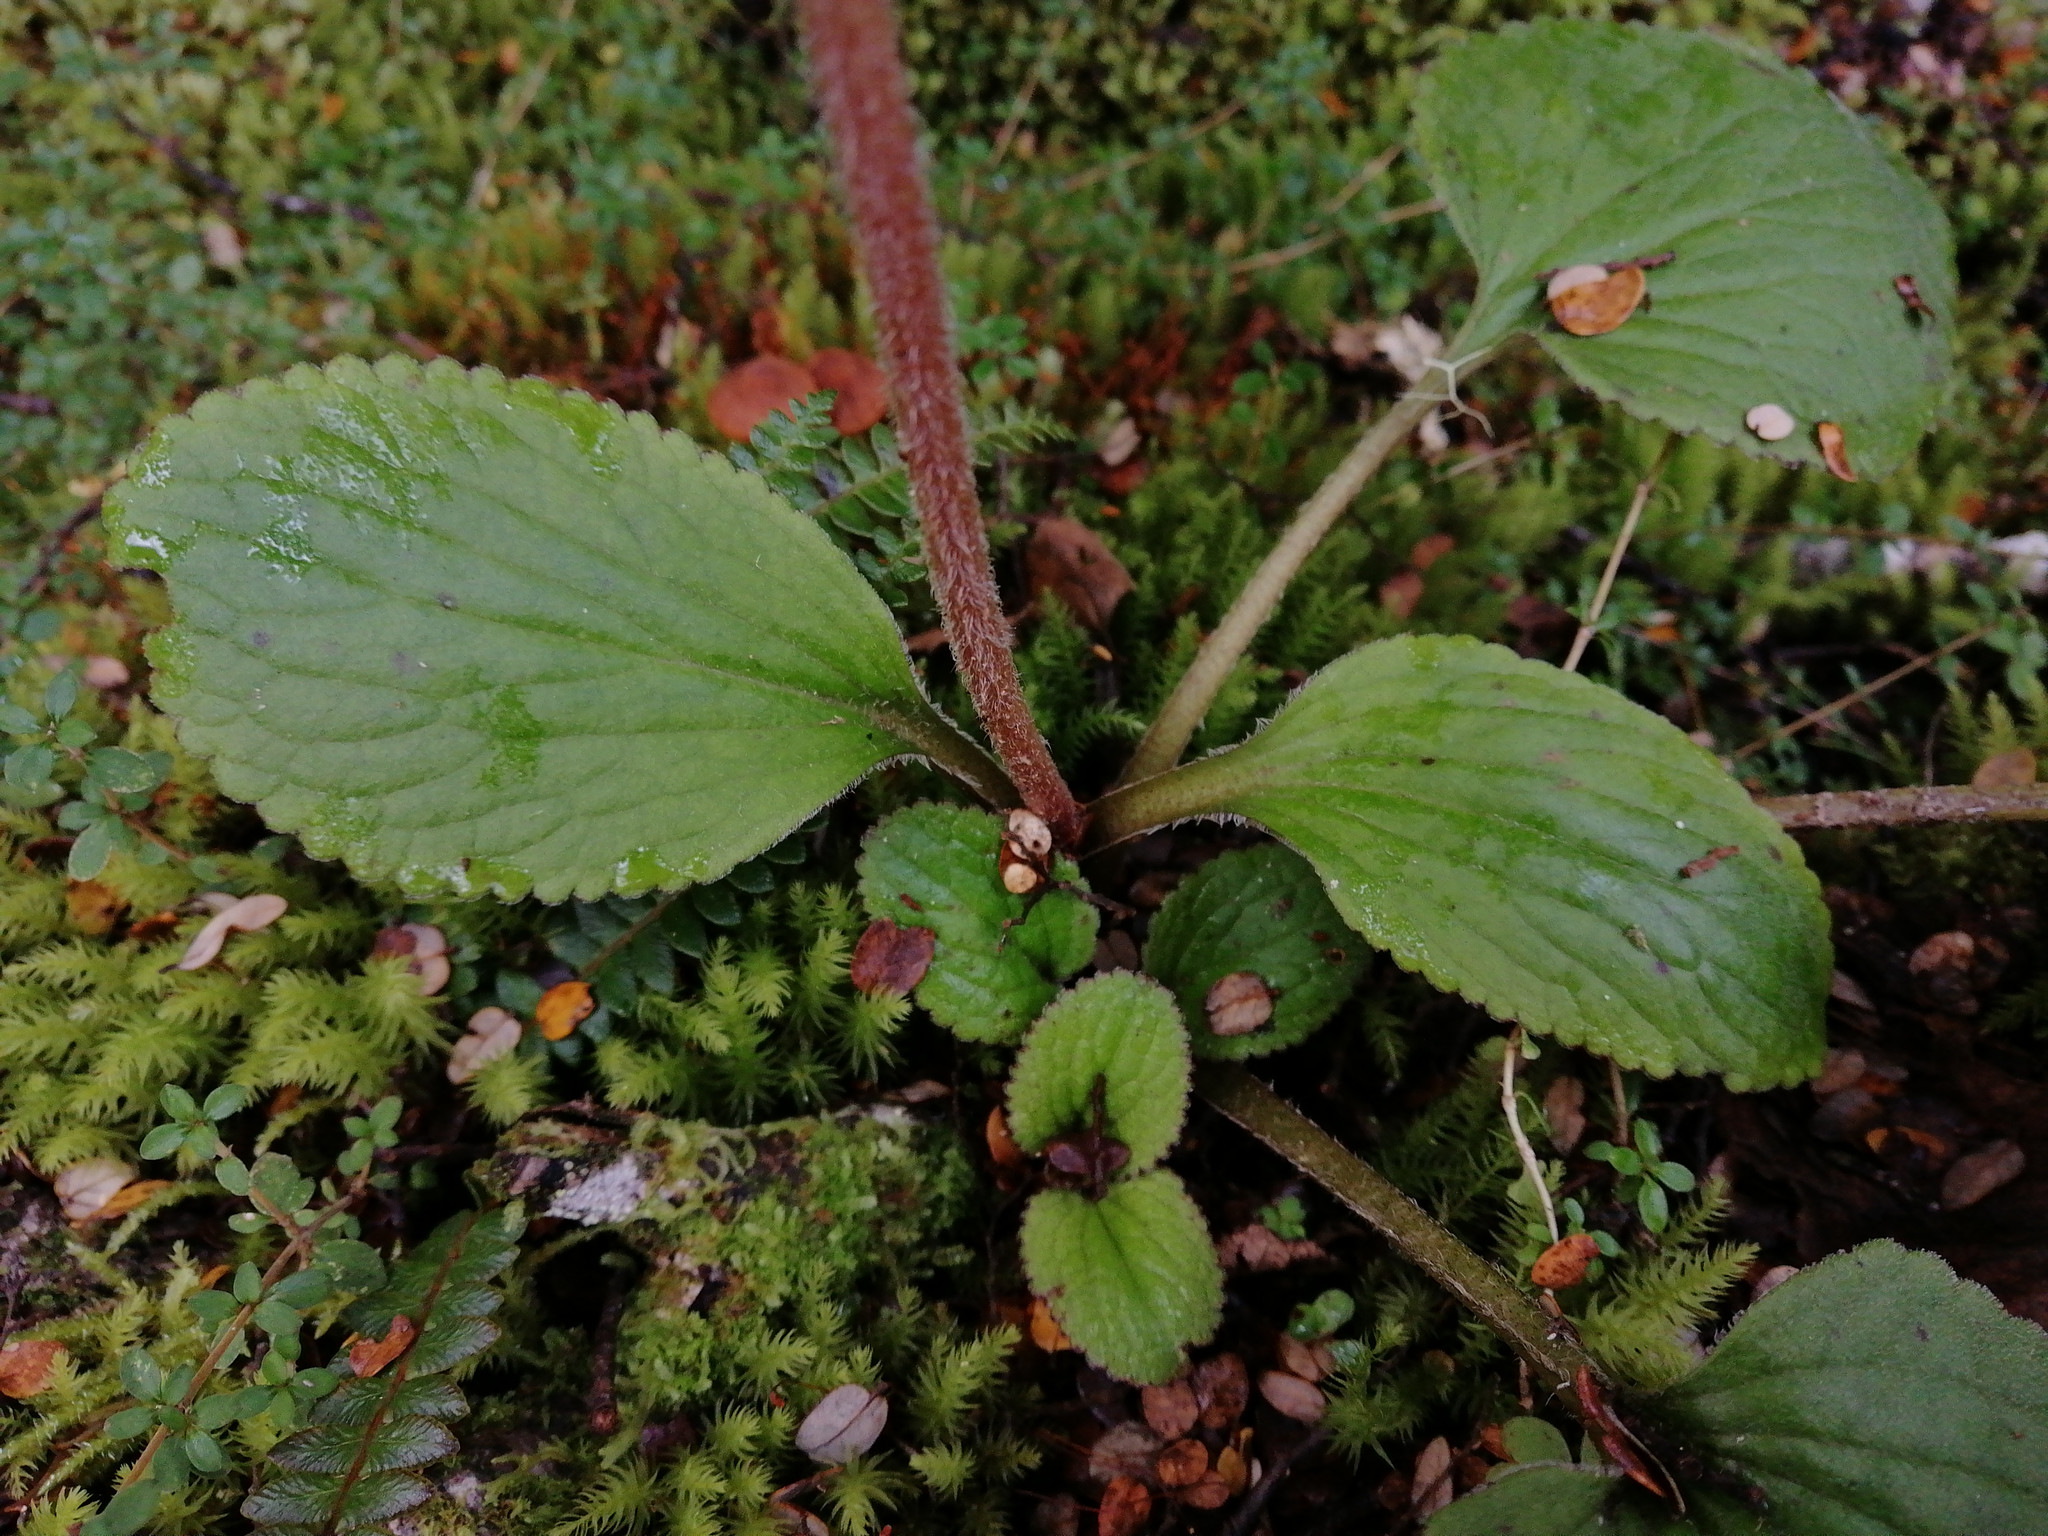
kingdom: Plantae
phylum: Tracheophyta
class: Magnoliopsida
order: Lamiales
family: Plantaginaceae
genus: Ourisia
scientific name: Ourisia macrophylla
